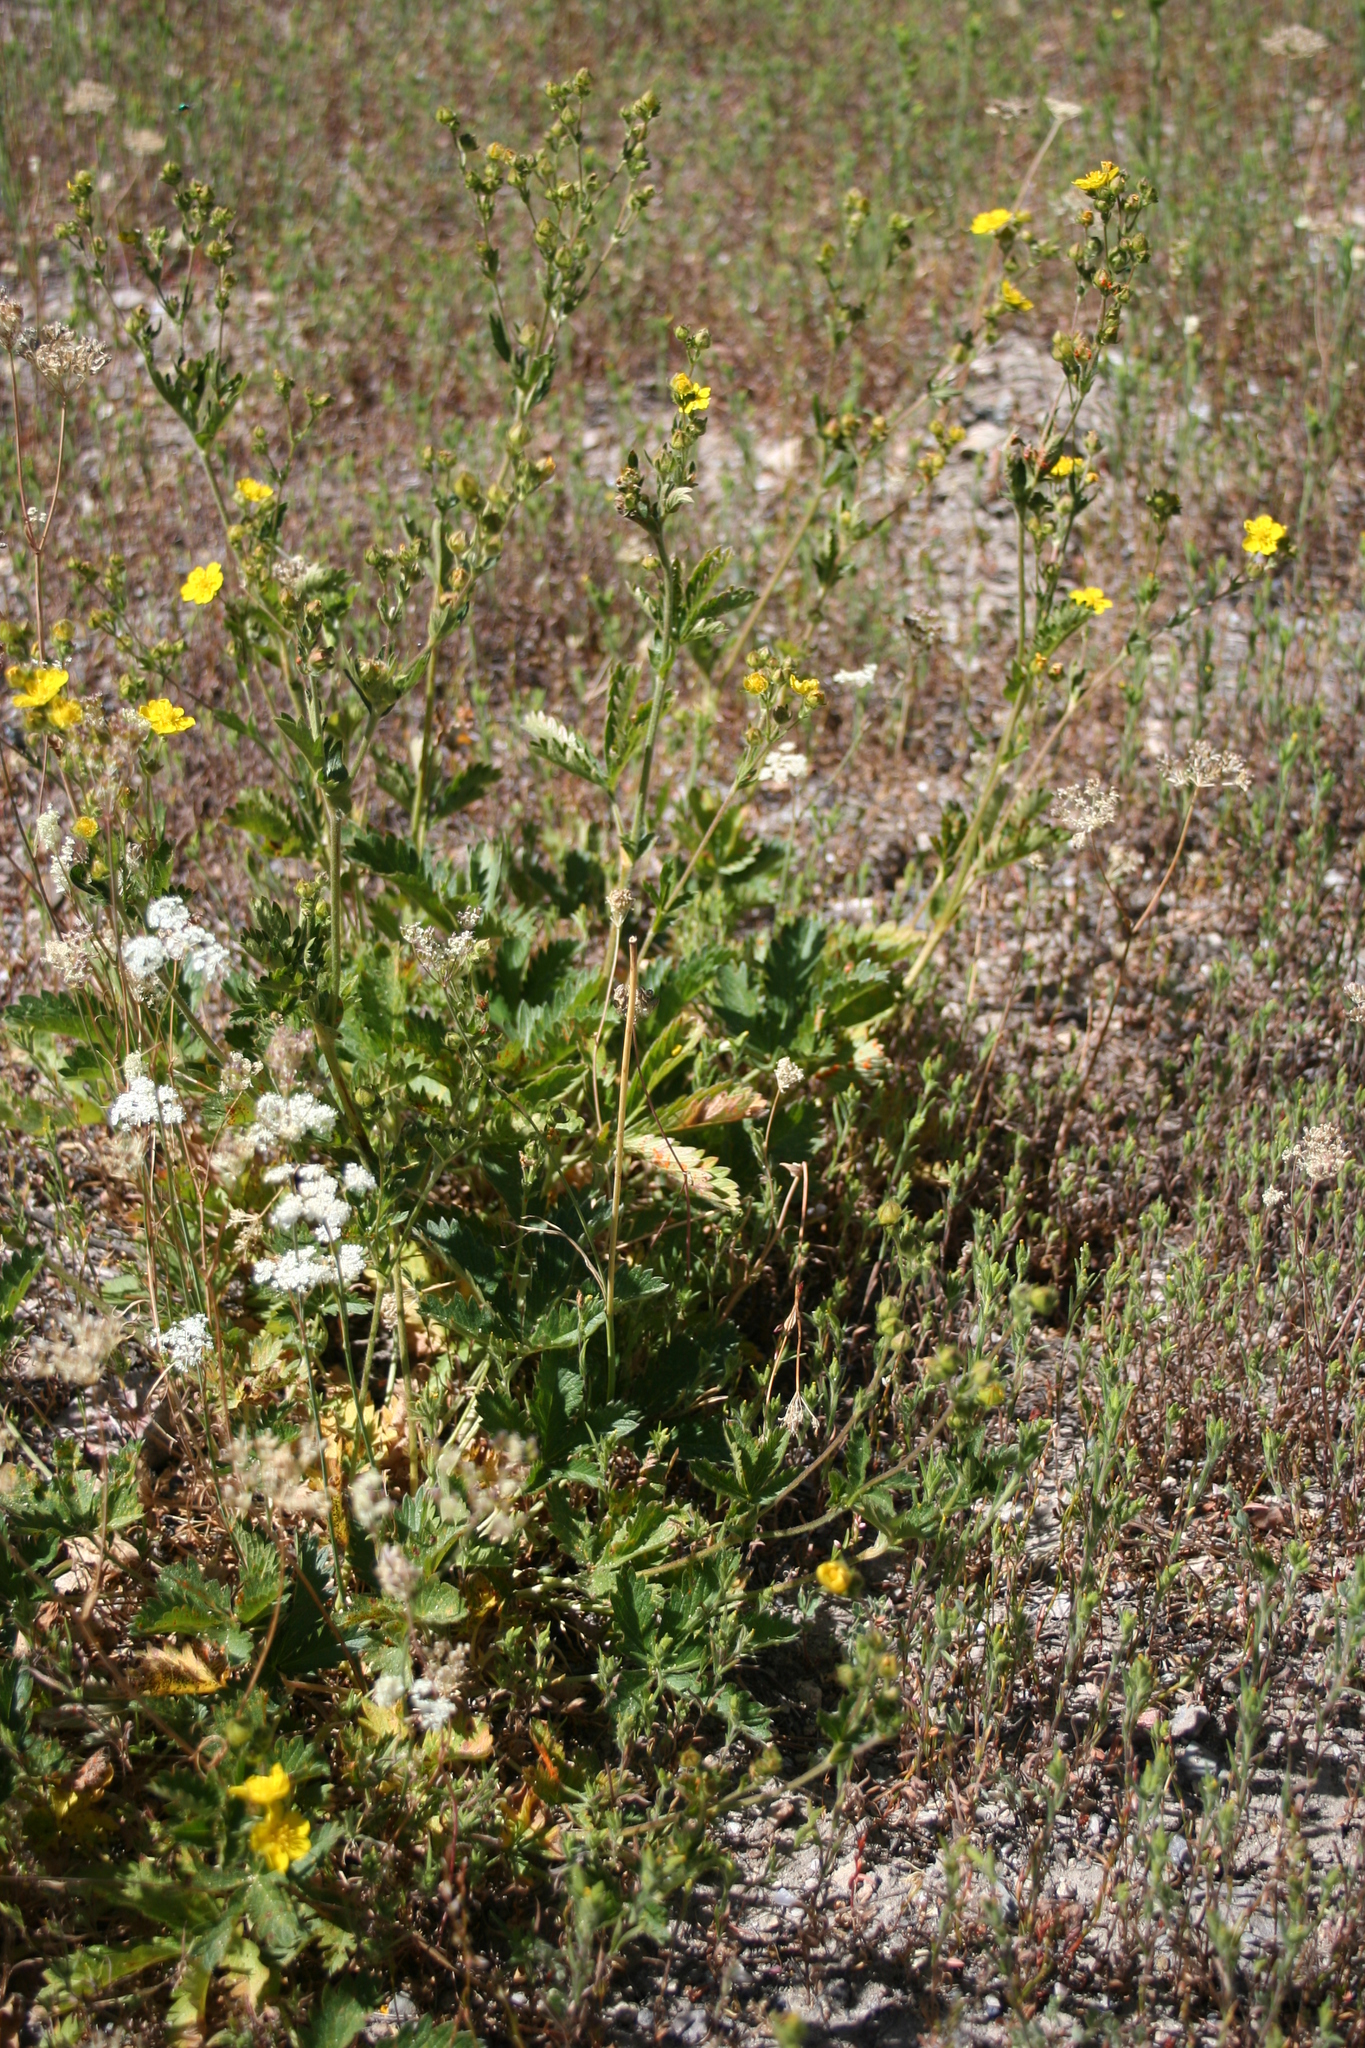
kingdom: Plantae
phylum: Tracheophyta
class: Magnoliopsida
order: Rosales
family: Rosaceae
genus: Potentilla
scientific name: Potentilla gracilis
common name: Graceful cinquefoil
